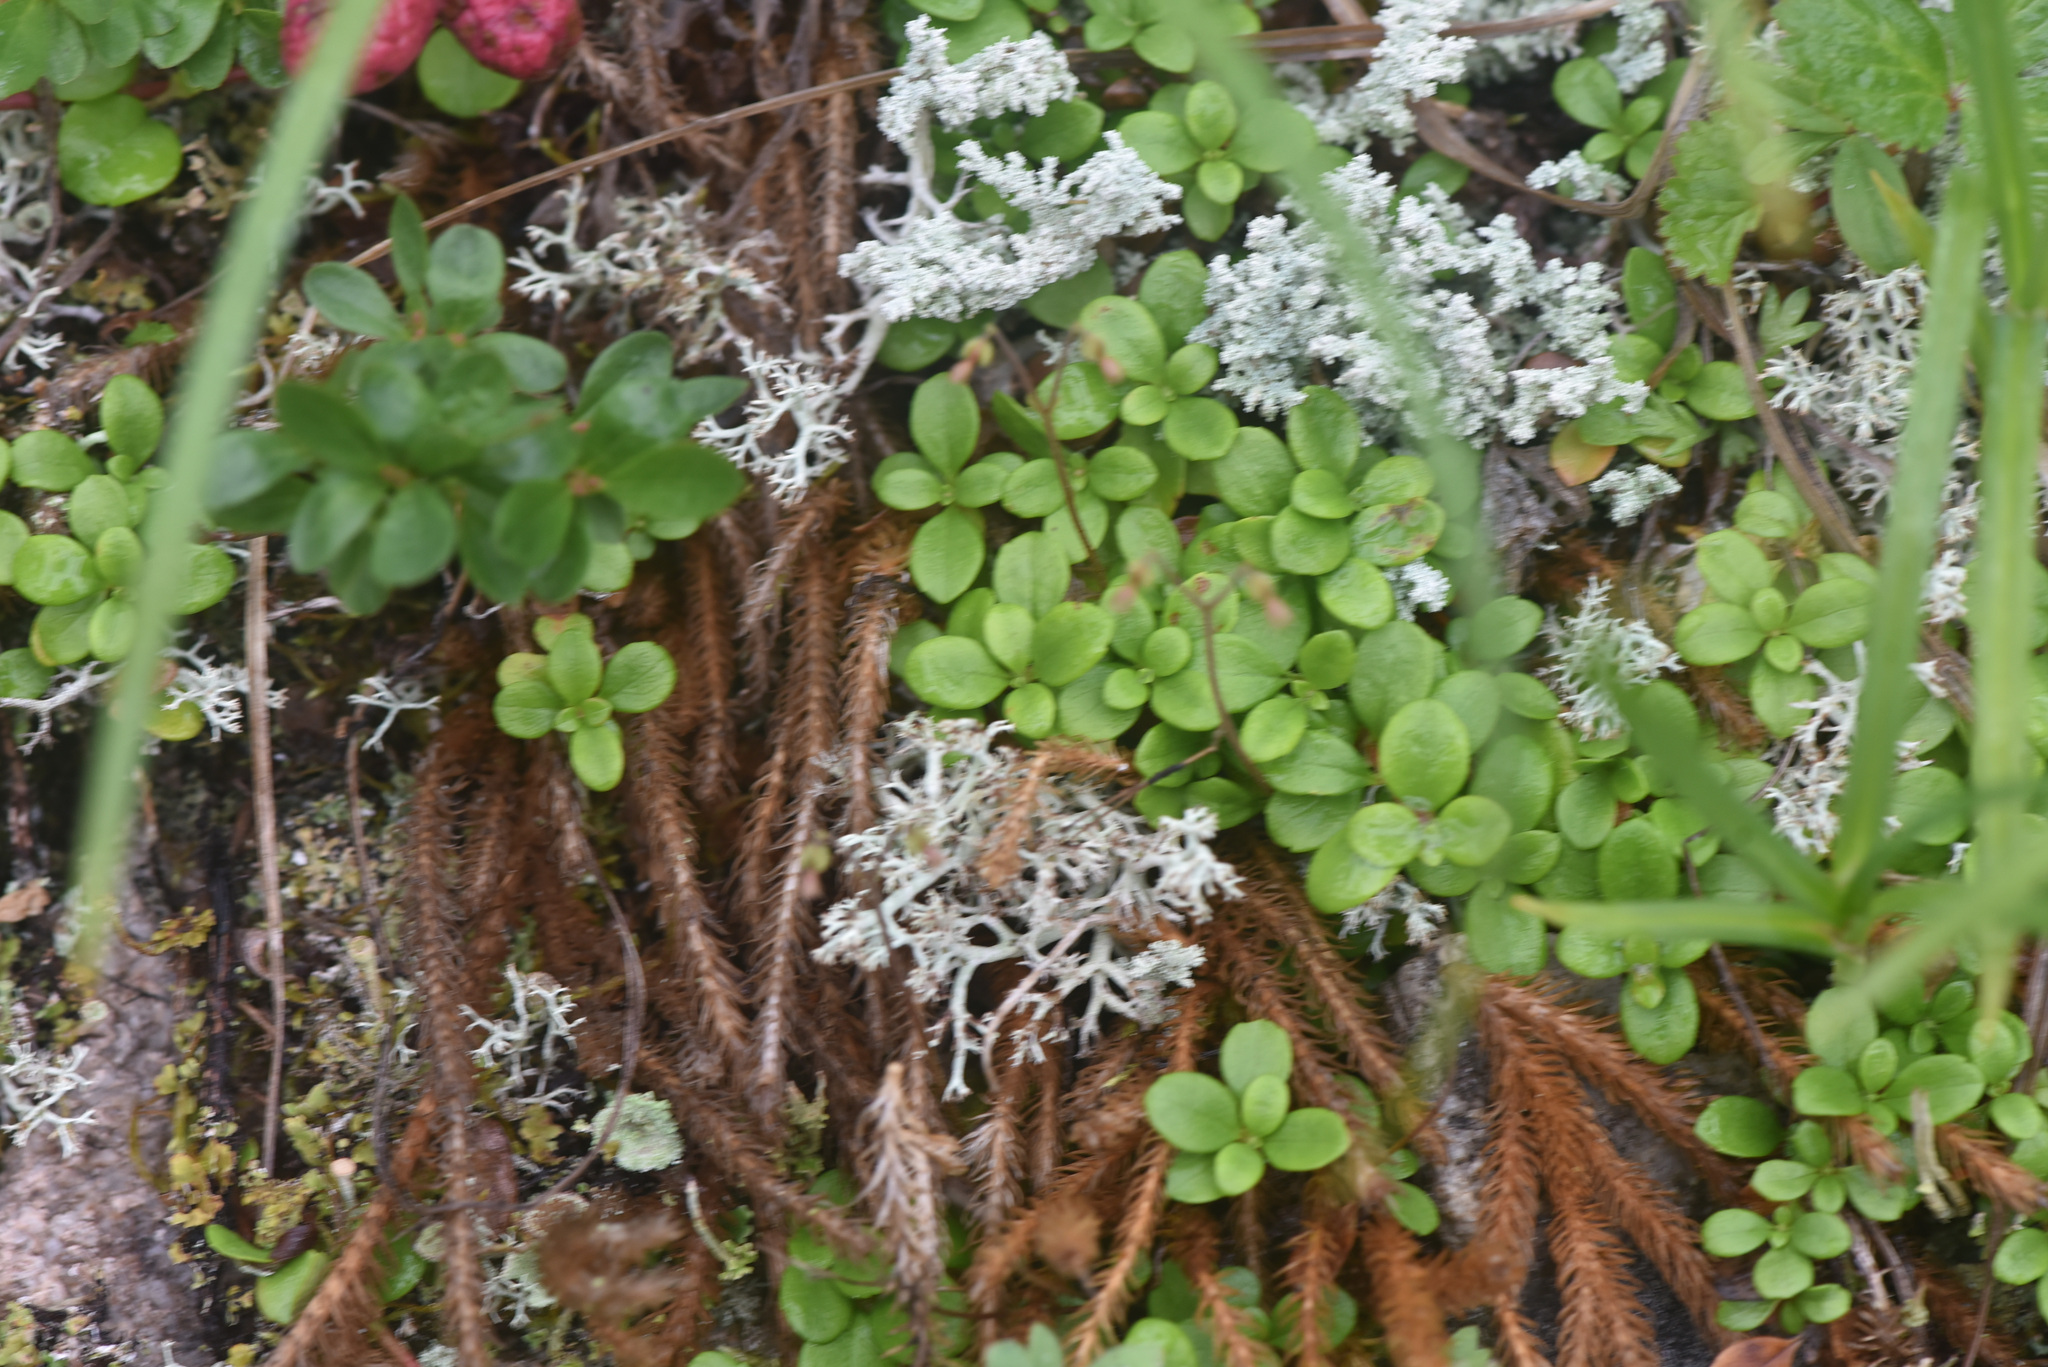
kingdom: Plantae
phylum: Tracheophyta
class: Magnoliopsida
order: Dipsacales
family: Caprifoliaceae
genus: Linnaea
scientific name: Linnaea borealis
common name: Twinflower
